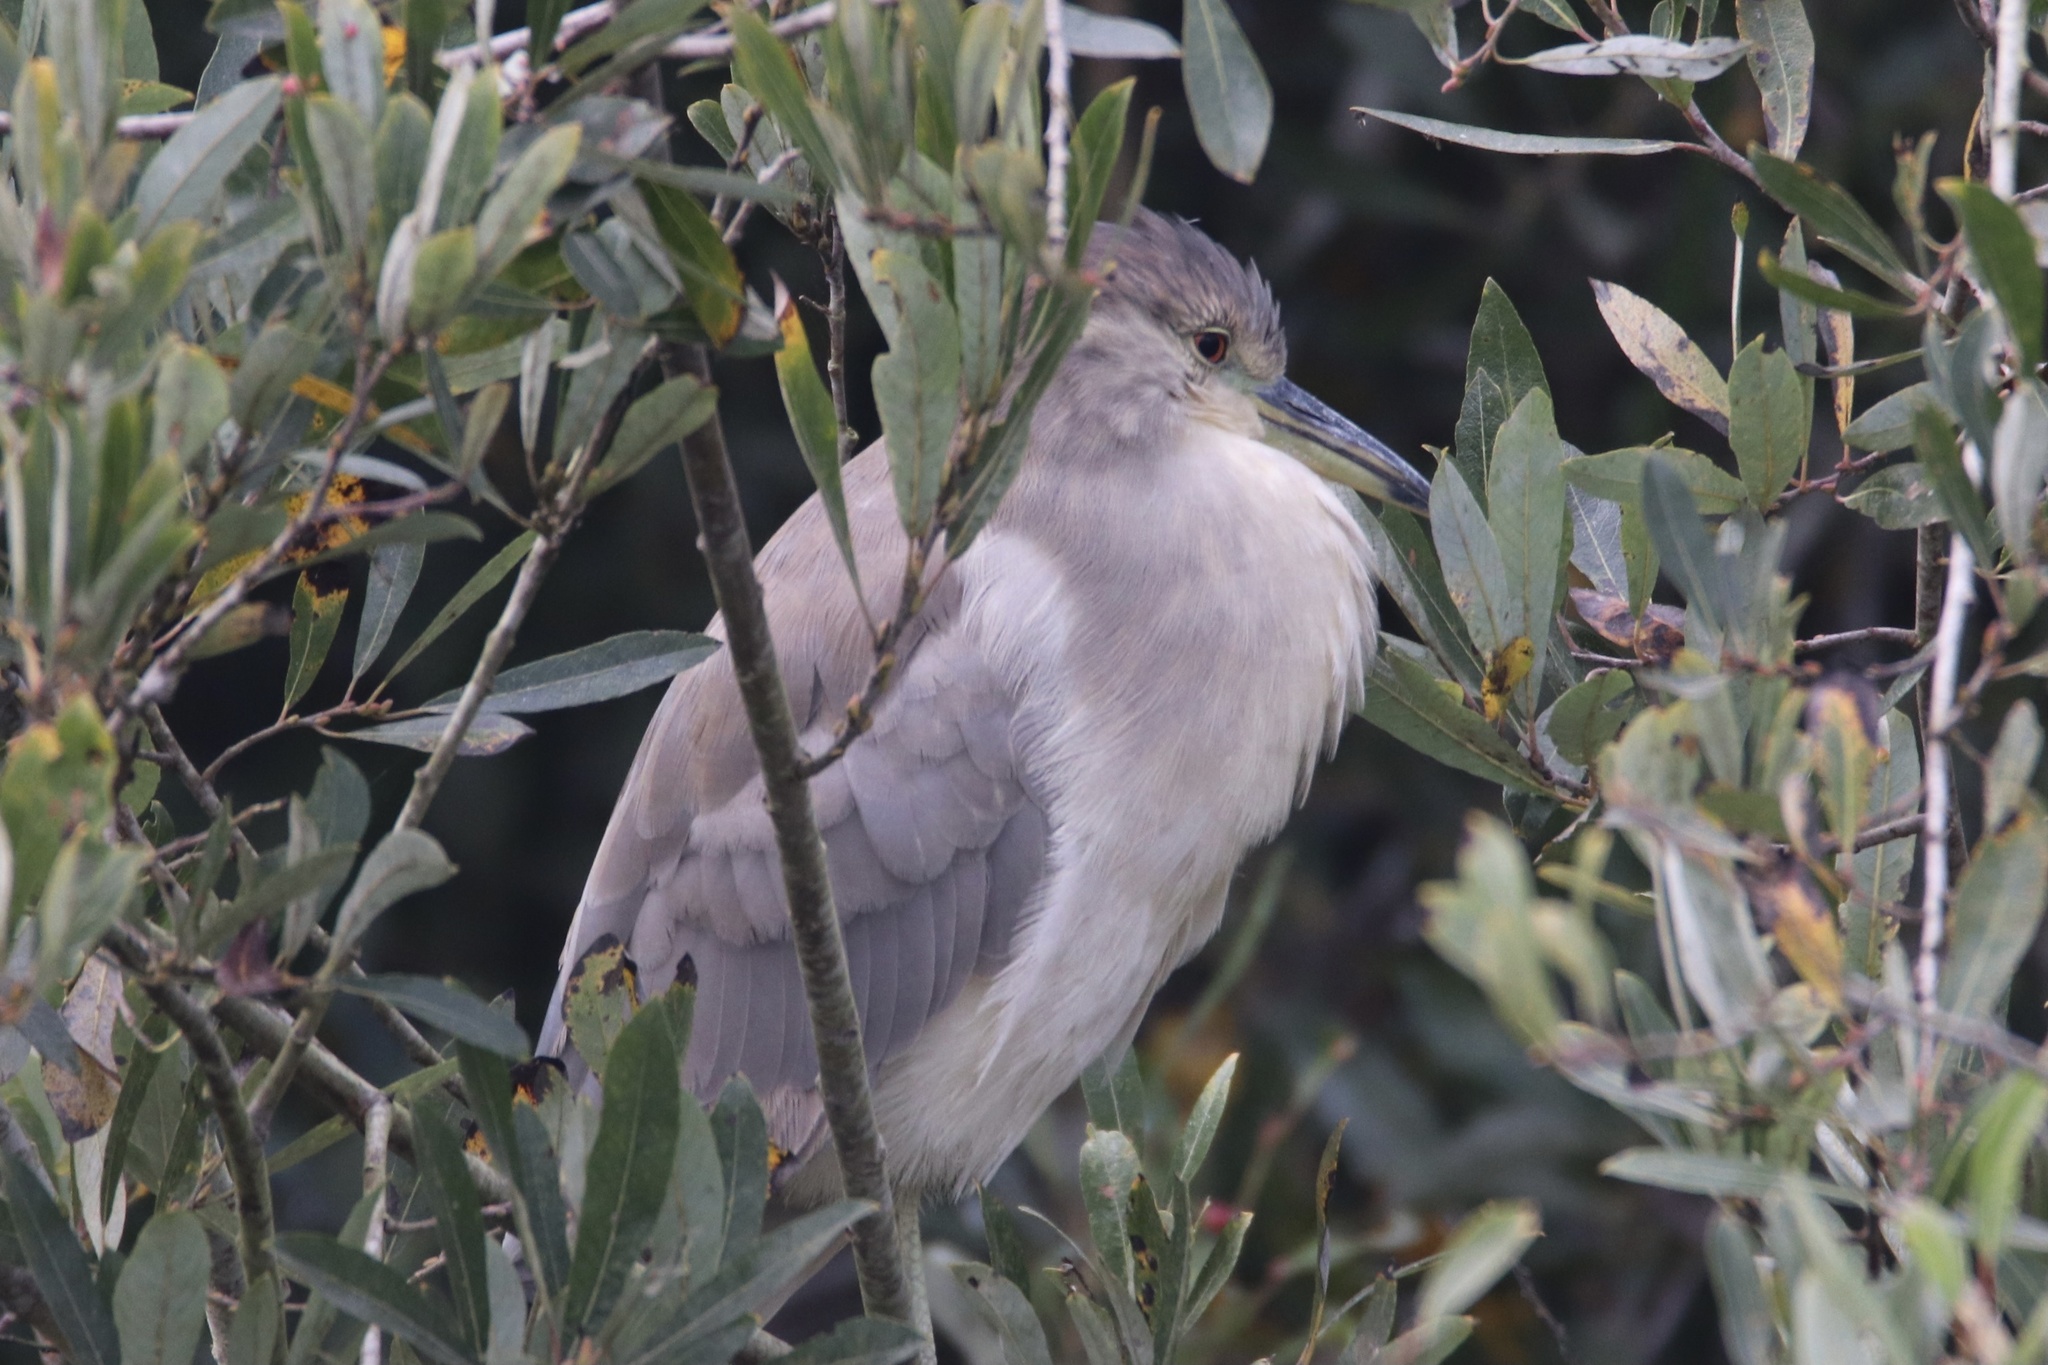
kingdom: Animalia
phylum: Chordata
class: Aves
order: Pelecaniformes
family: Ardeidae
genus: Nycticorax
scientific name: Nycticorax nycticorax
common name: Black-crowned night heron
